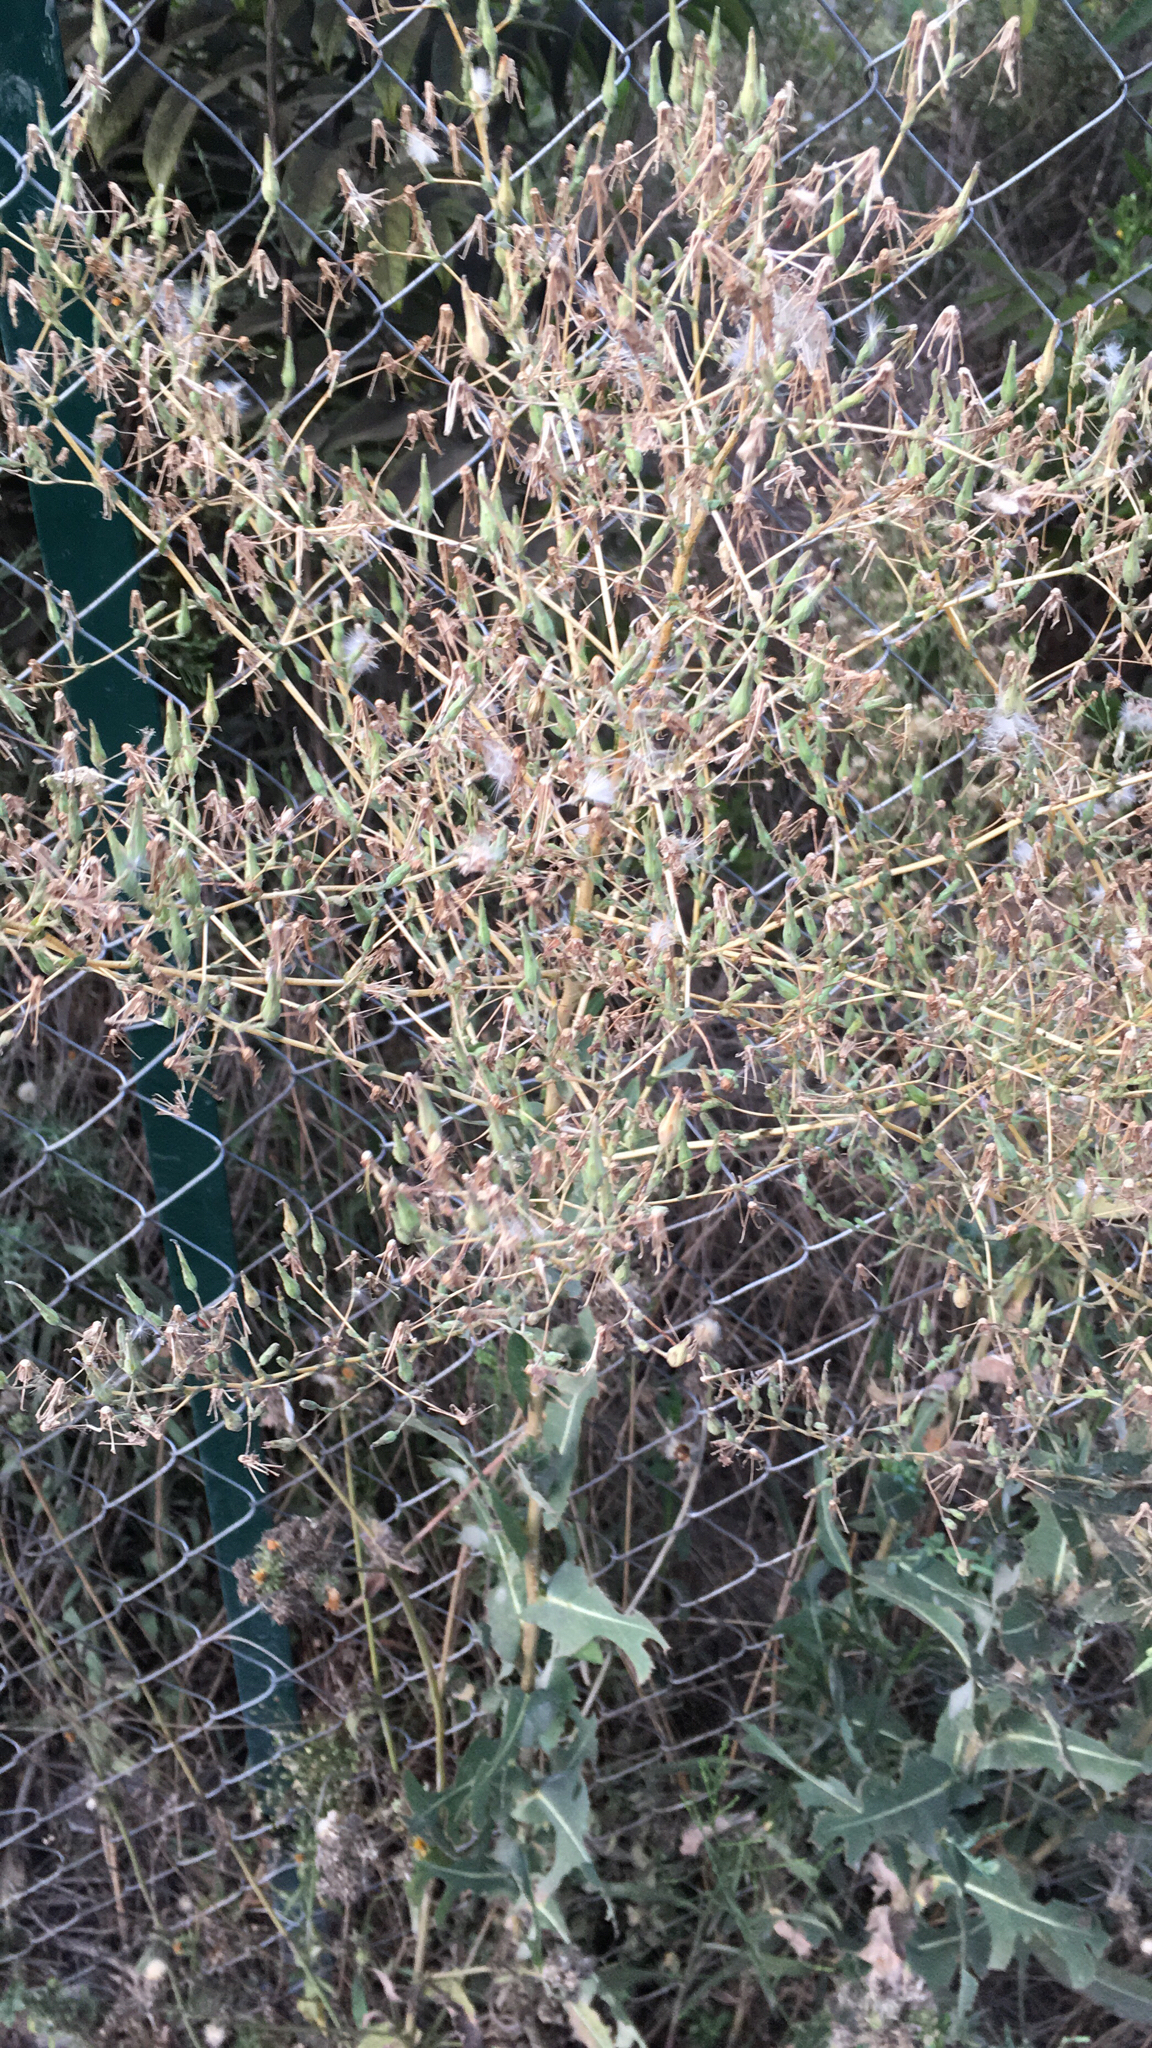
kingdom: Plantae
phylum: Tracheophyta
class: Magnoliopsida
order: Asterales
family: Asteraceae
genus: Lactuca
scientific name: Lactuca serriola
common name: Prickly lettuce
